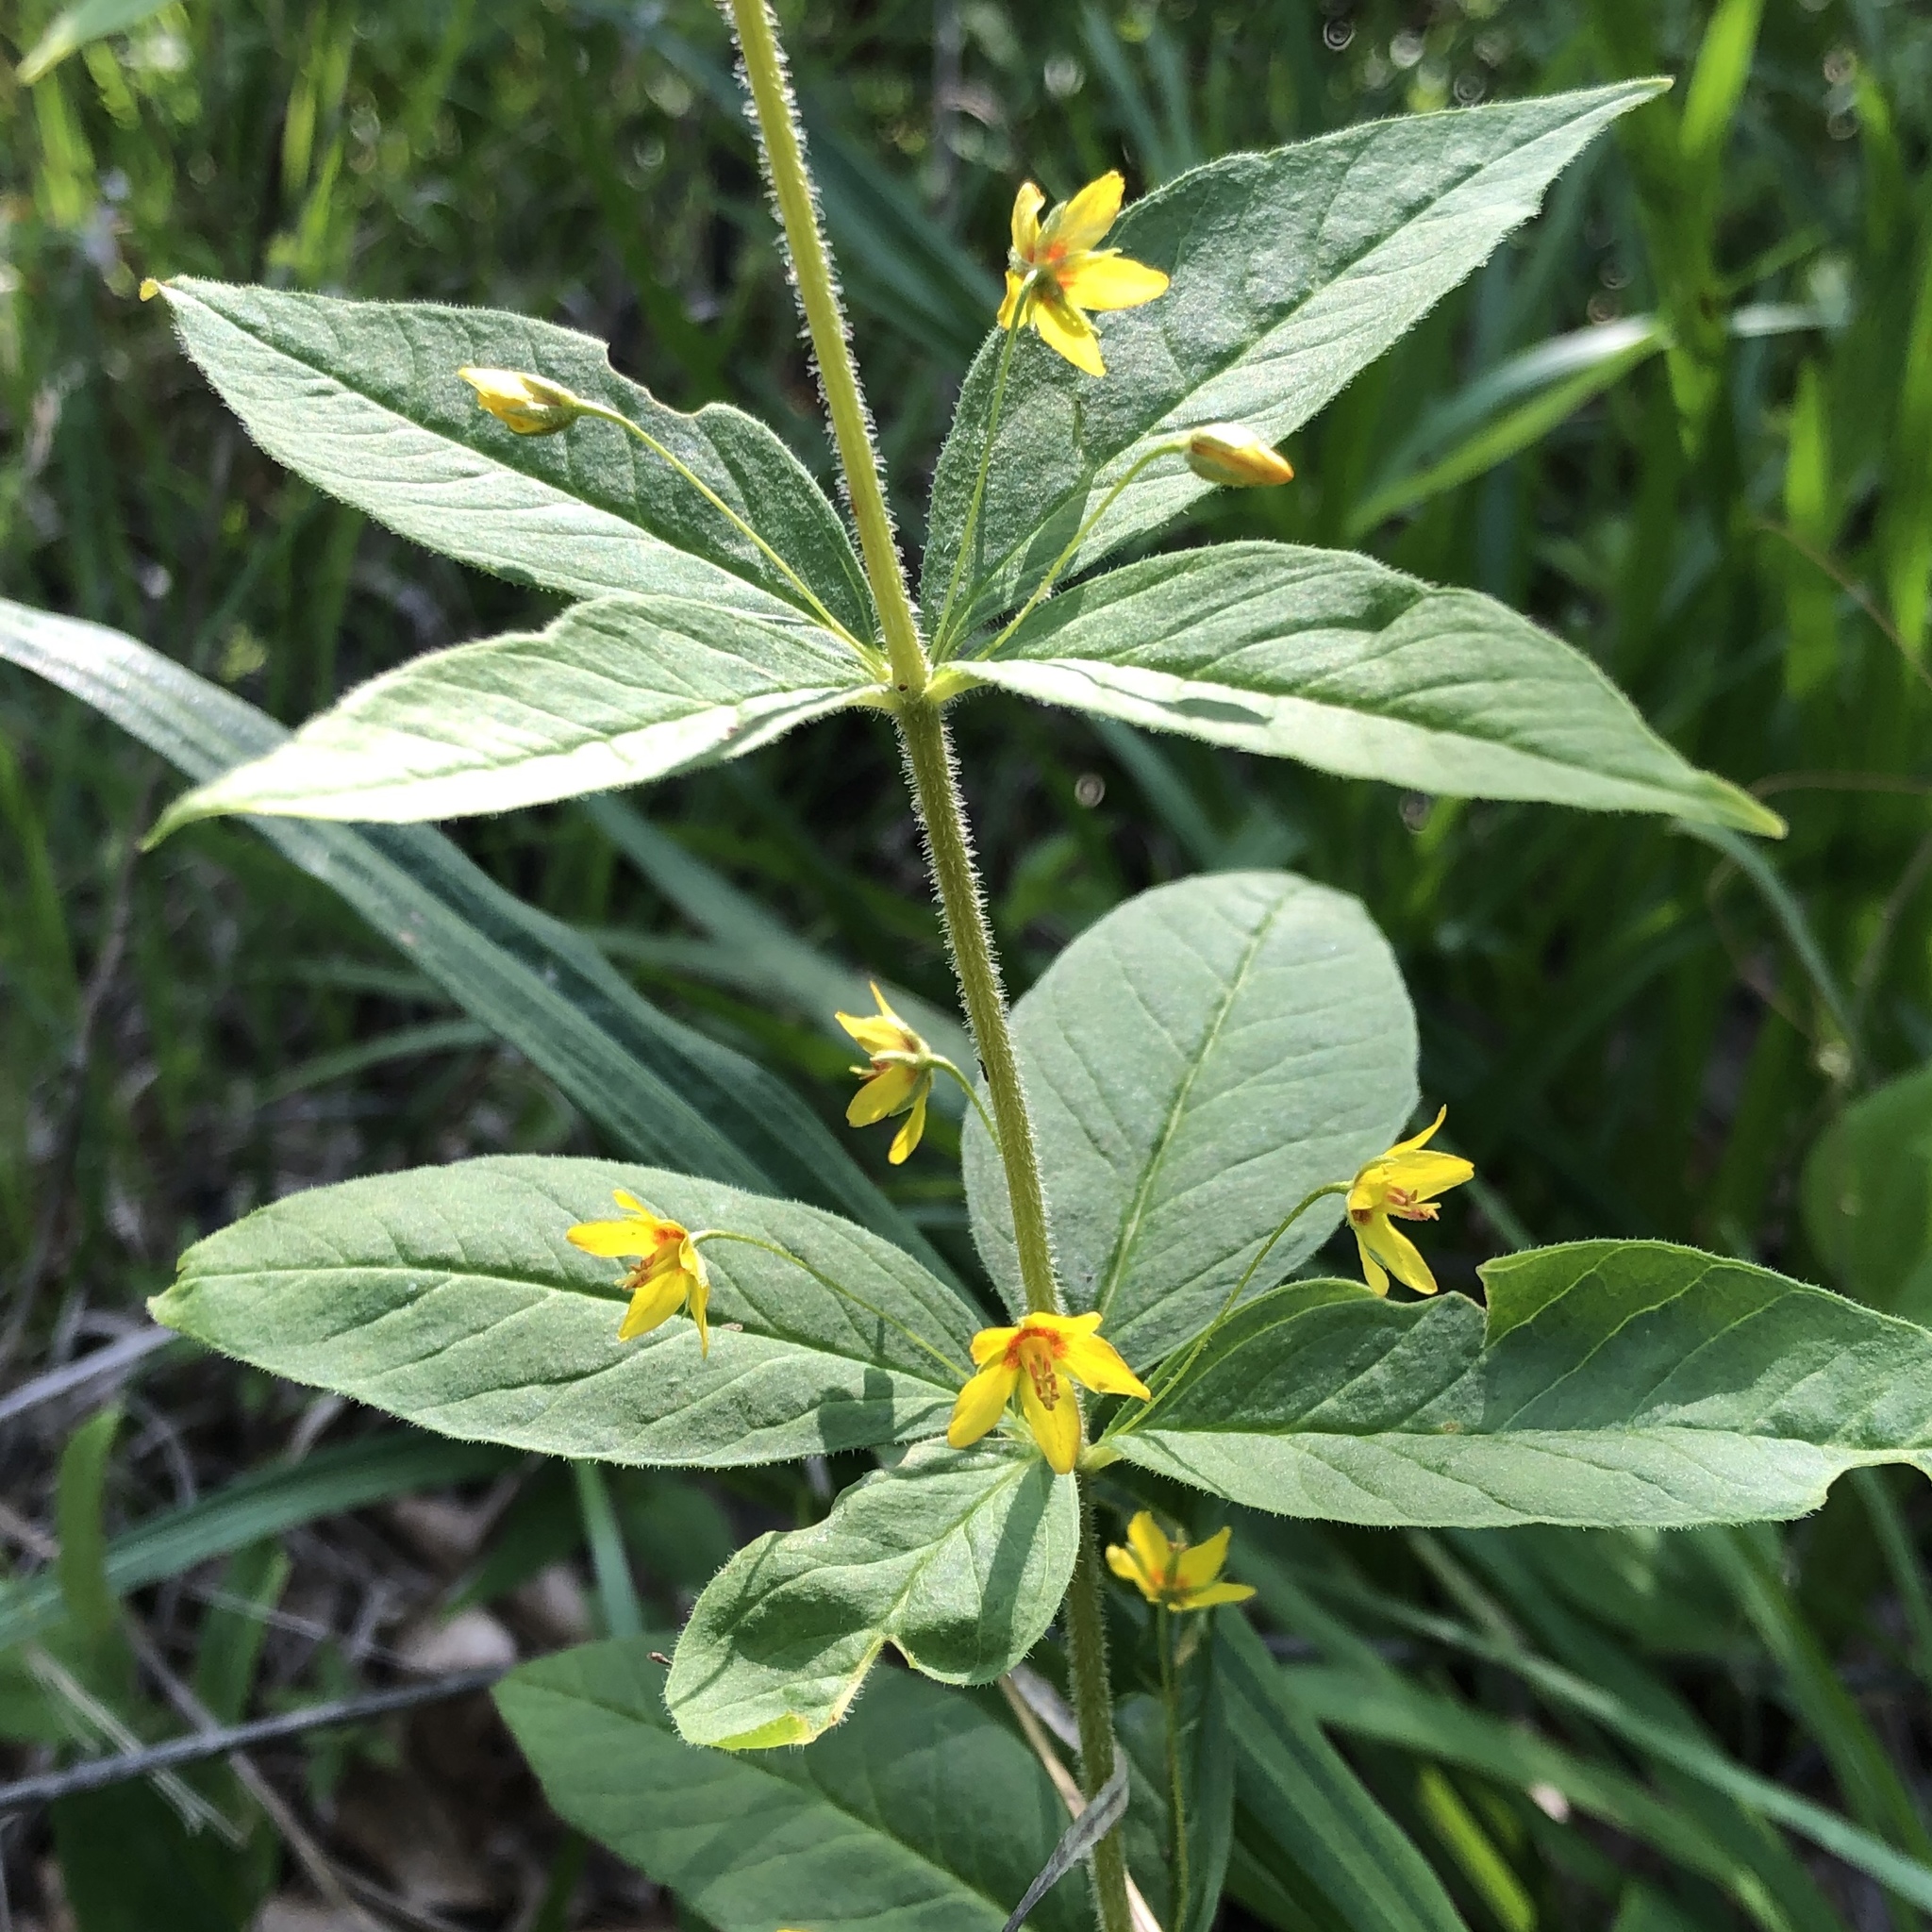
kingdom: Plantae
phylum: Tracheophyta
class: Magnoliopsida
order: Ericales
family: Primulaceae
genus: Lysimachia
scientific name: Lysimachia quadrifolia
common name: Whorled loosestrife
